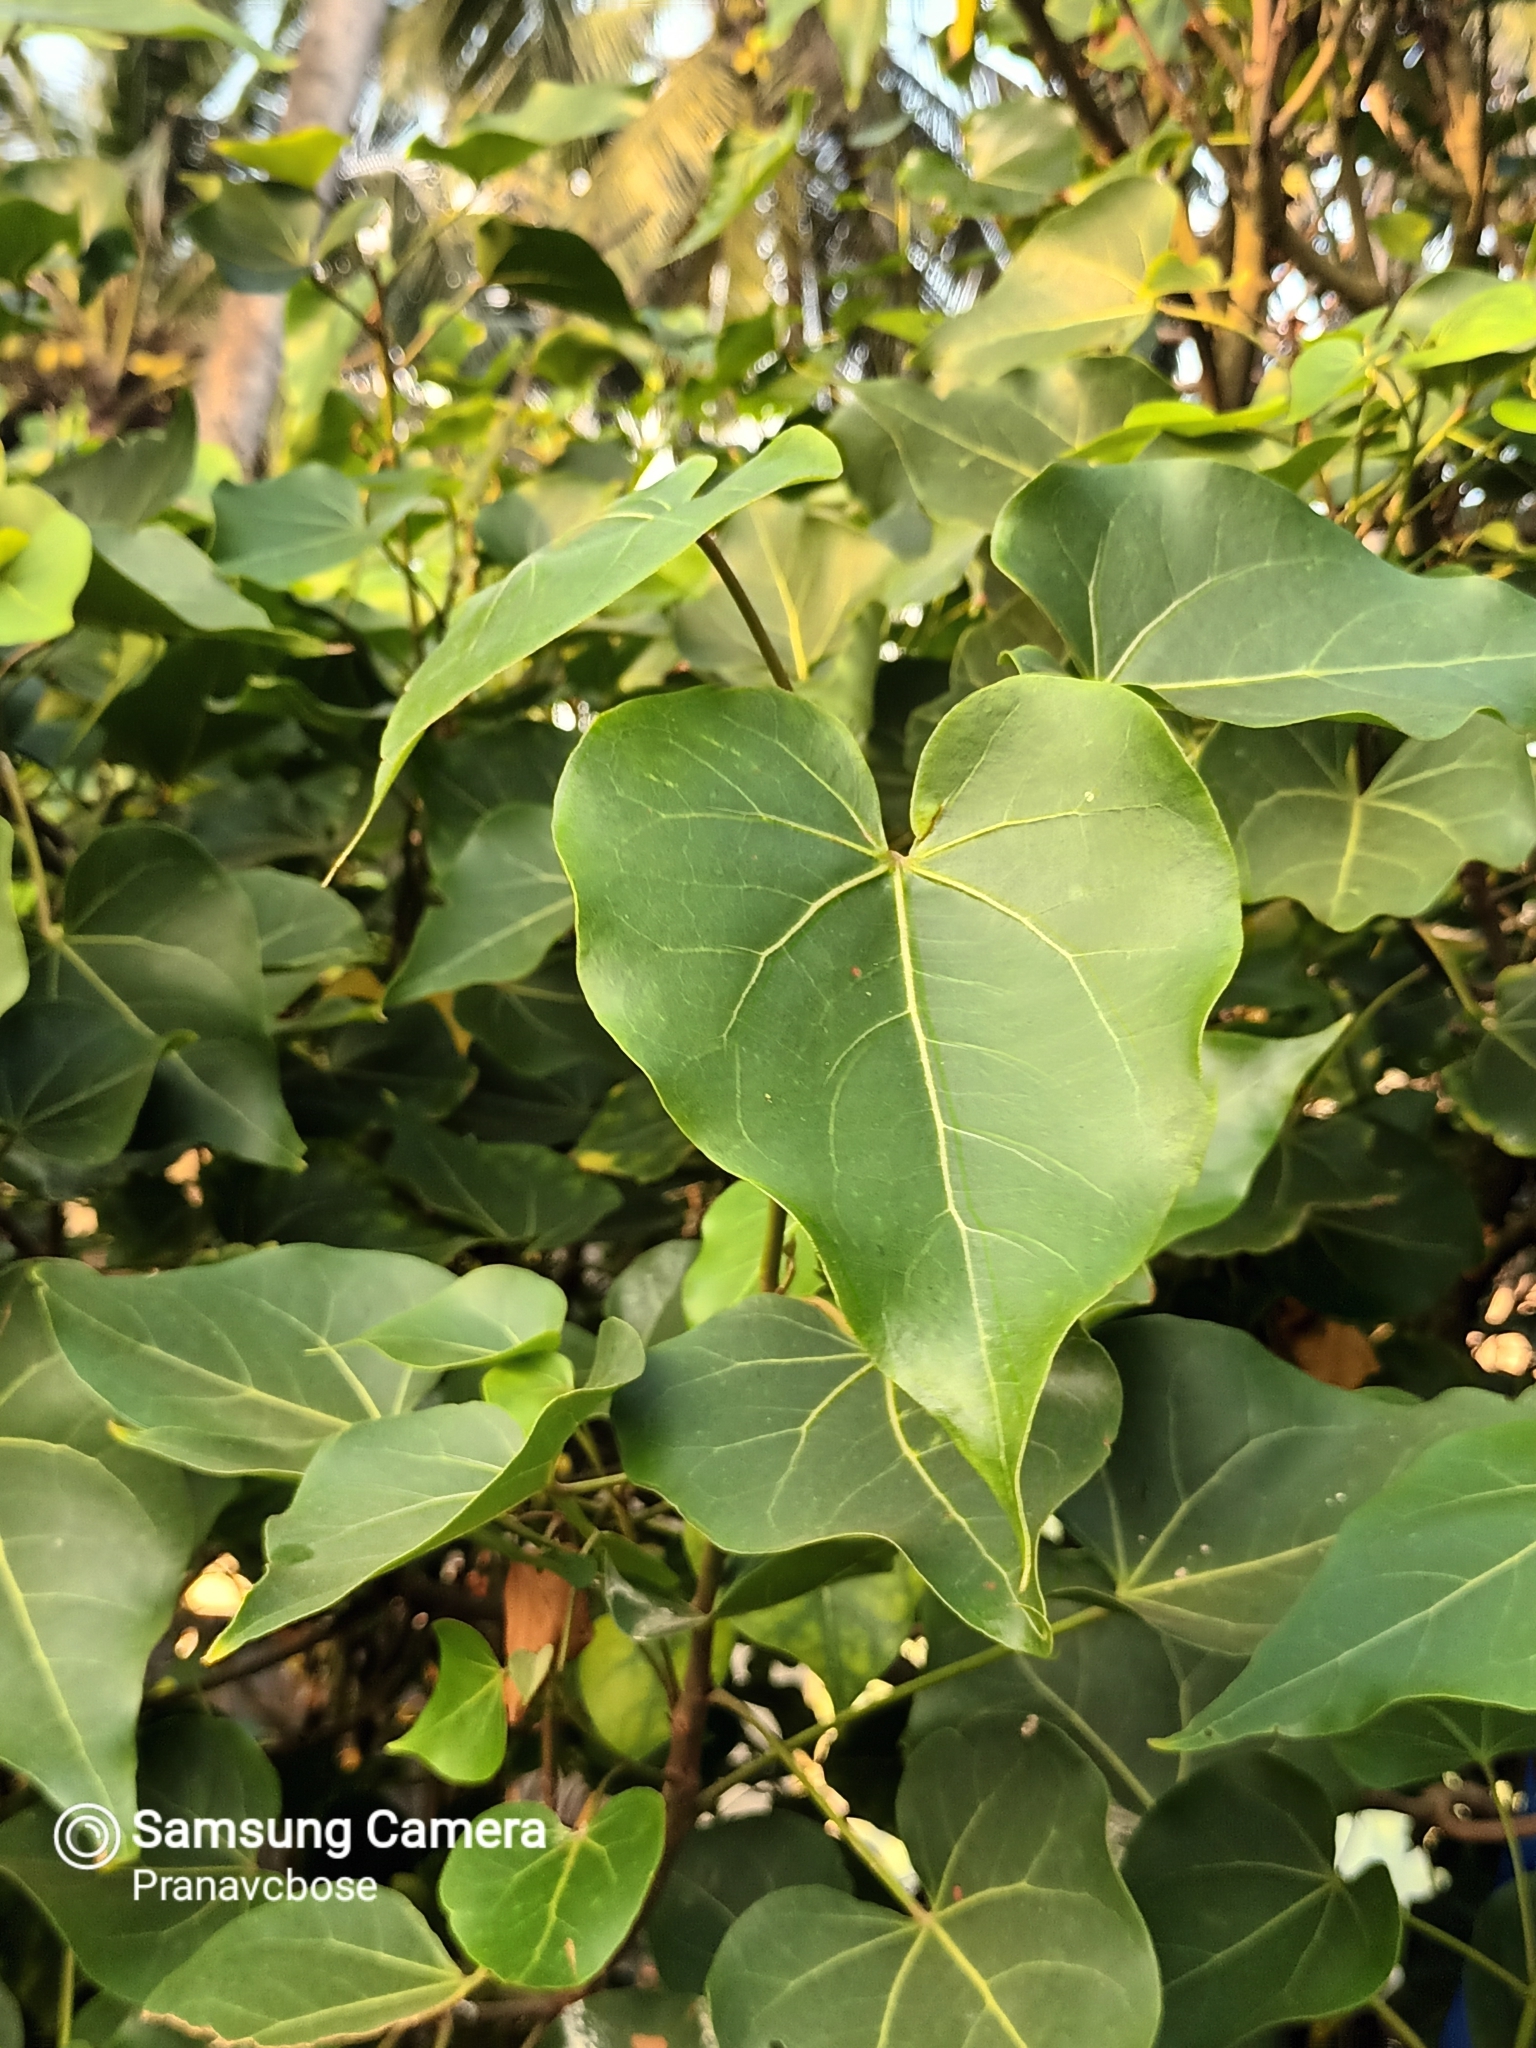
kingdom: Plantae
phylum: Tracheophyta
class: Magnoliopsida
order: Malvales
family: Malvaceae
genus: Thespesia
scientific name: Thespesia populnea
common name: Seaside mahoe
